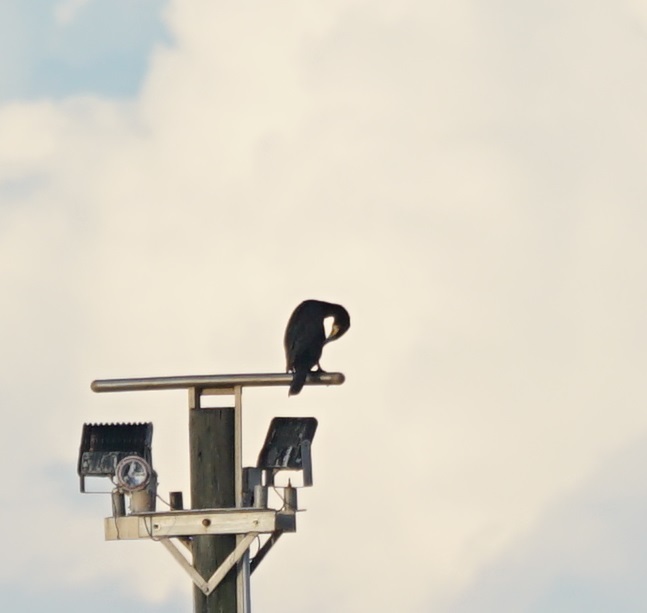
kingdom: Animalia
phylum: Chordata
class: Aves
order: Suliformes
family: Phalacrocoracidae
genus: Phalacrocorax
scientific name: Phalacrocorax carbo
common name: Great cormorant
